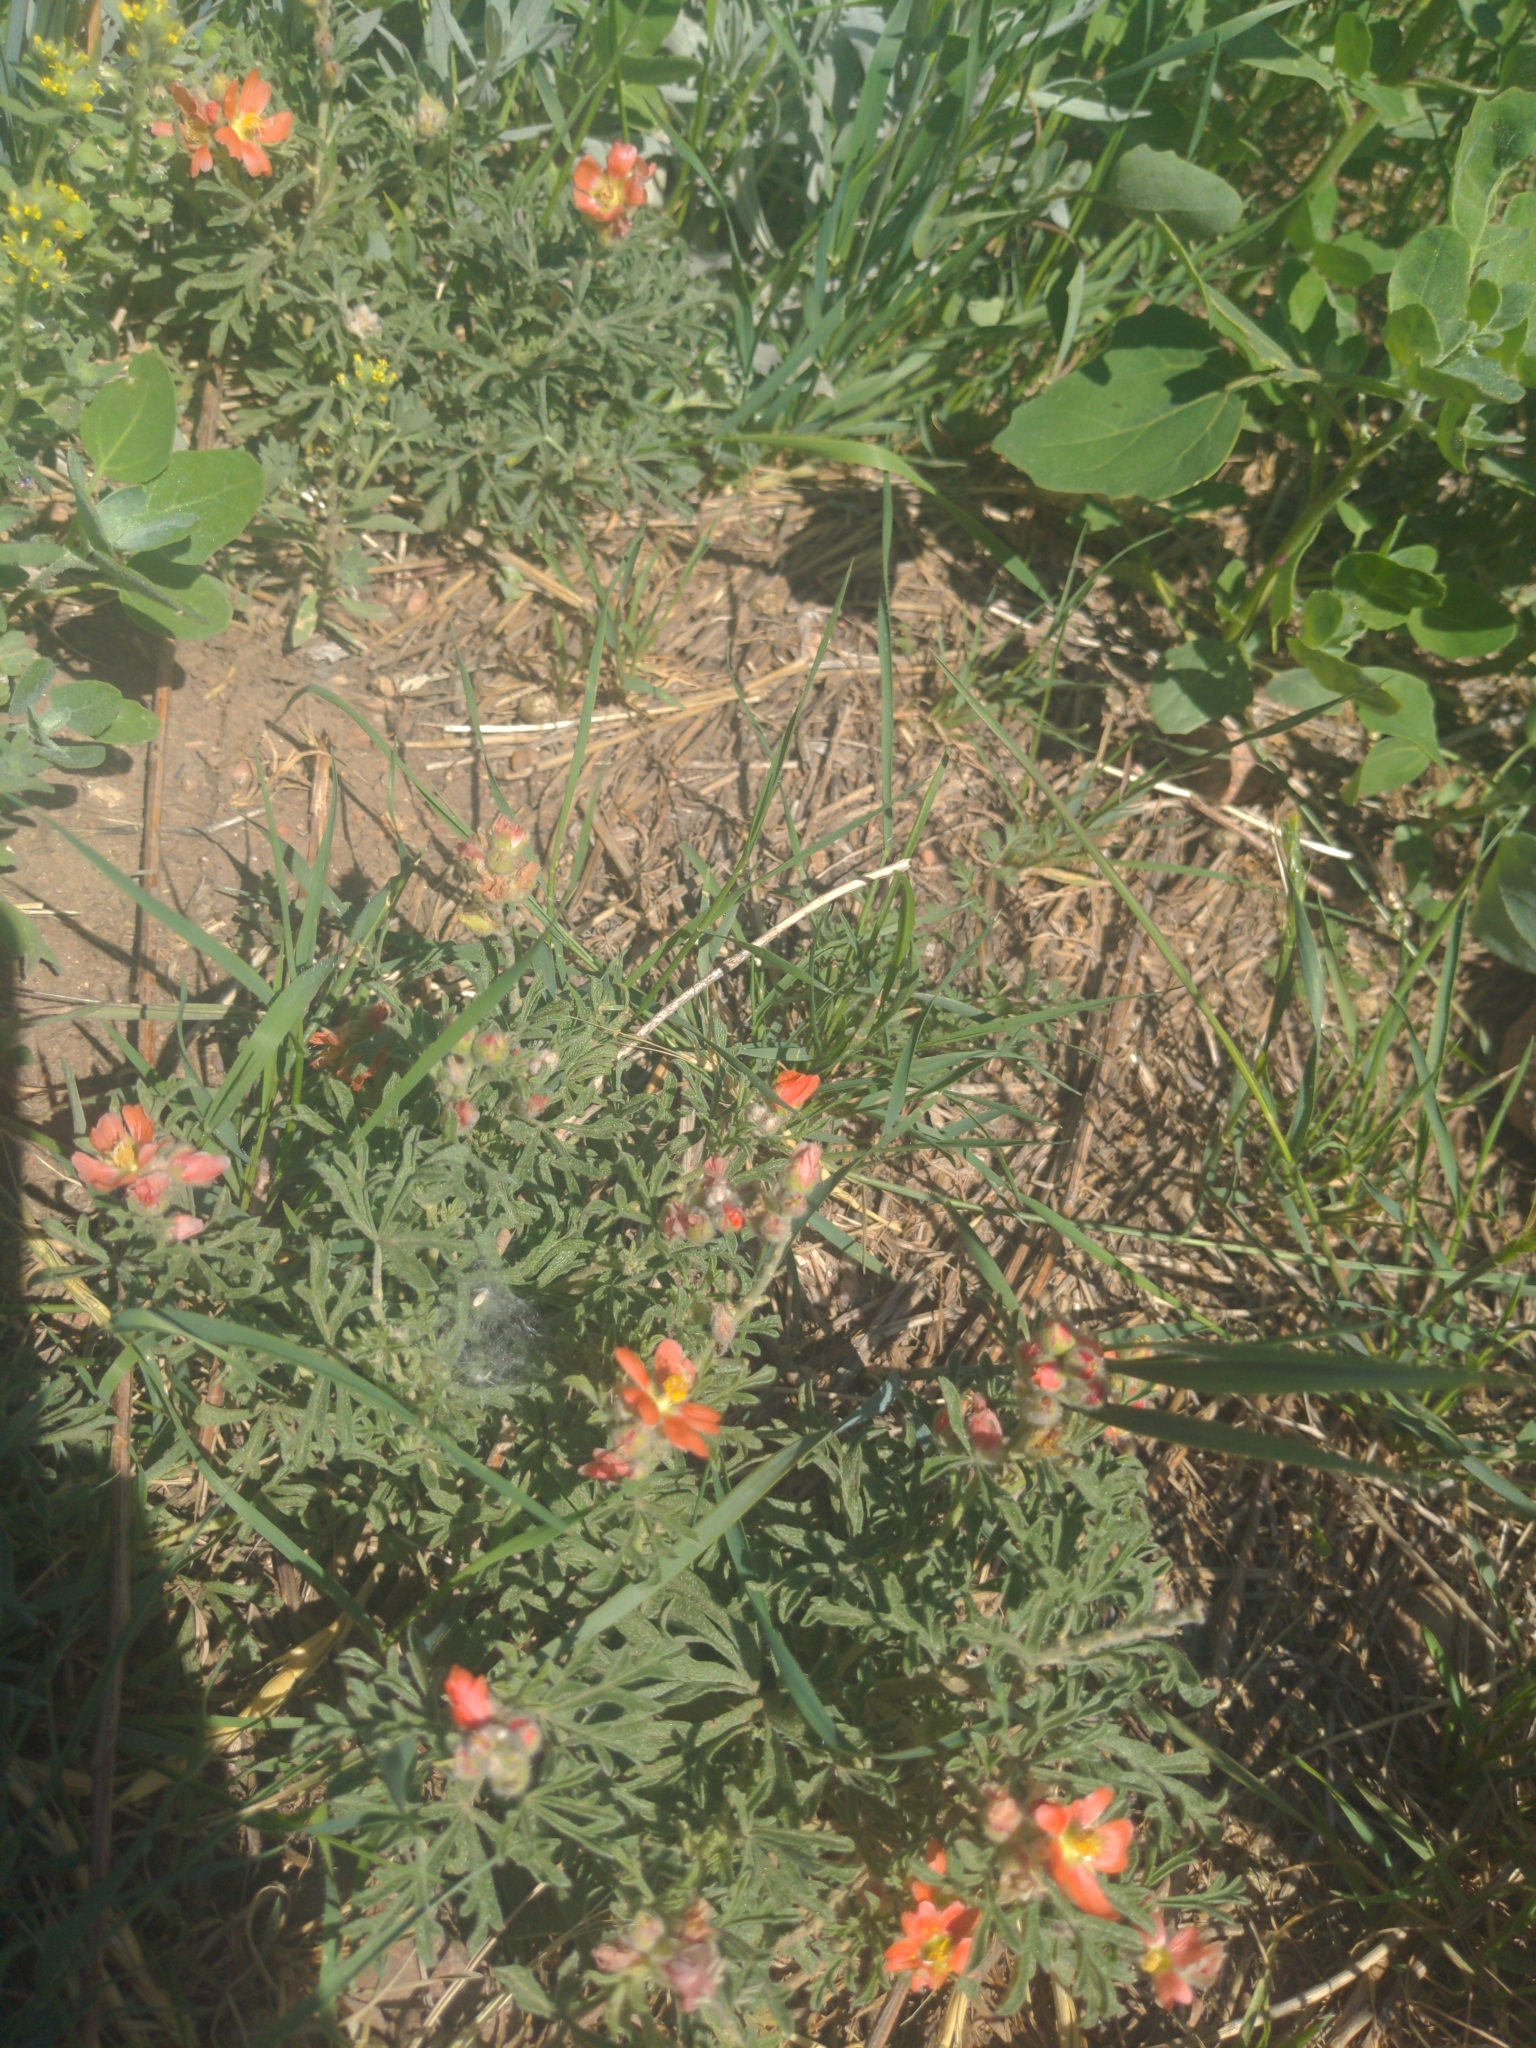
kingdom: Plantae
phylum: Tracheophyta
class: Magnoliopsida
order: Malvales
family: Malvaceae
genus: Sphaeralcea
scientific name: Sphaeralcea coccinea
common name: Moss-rose
